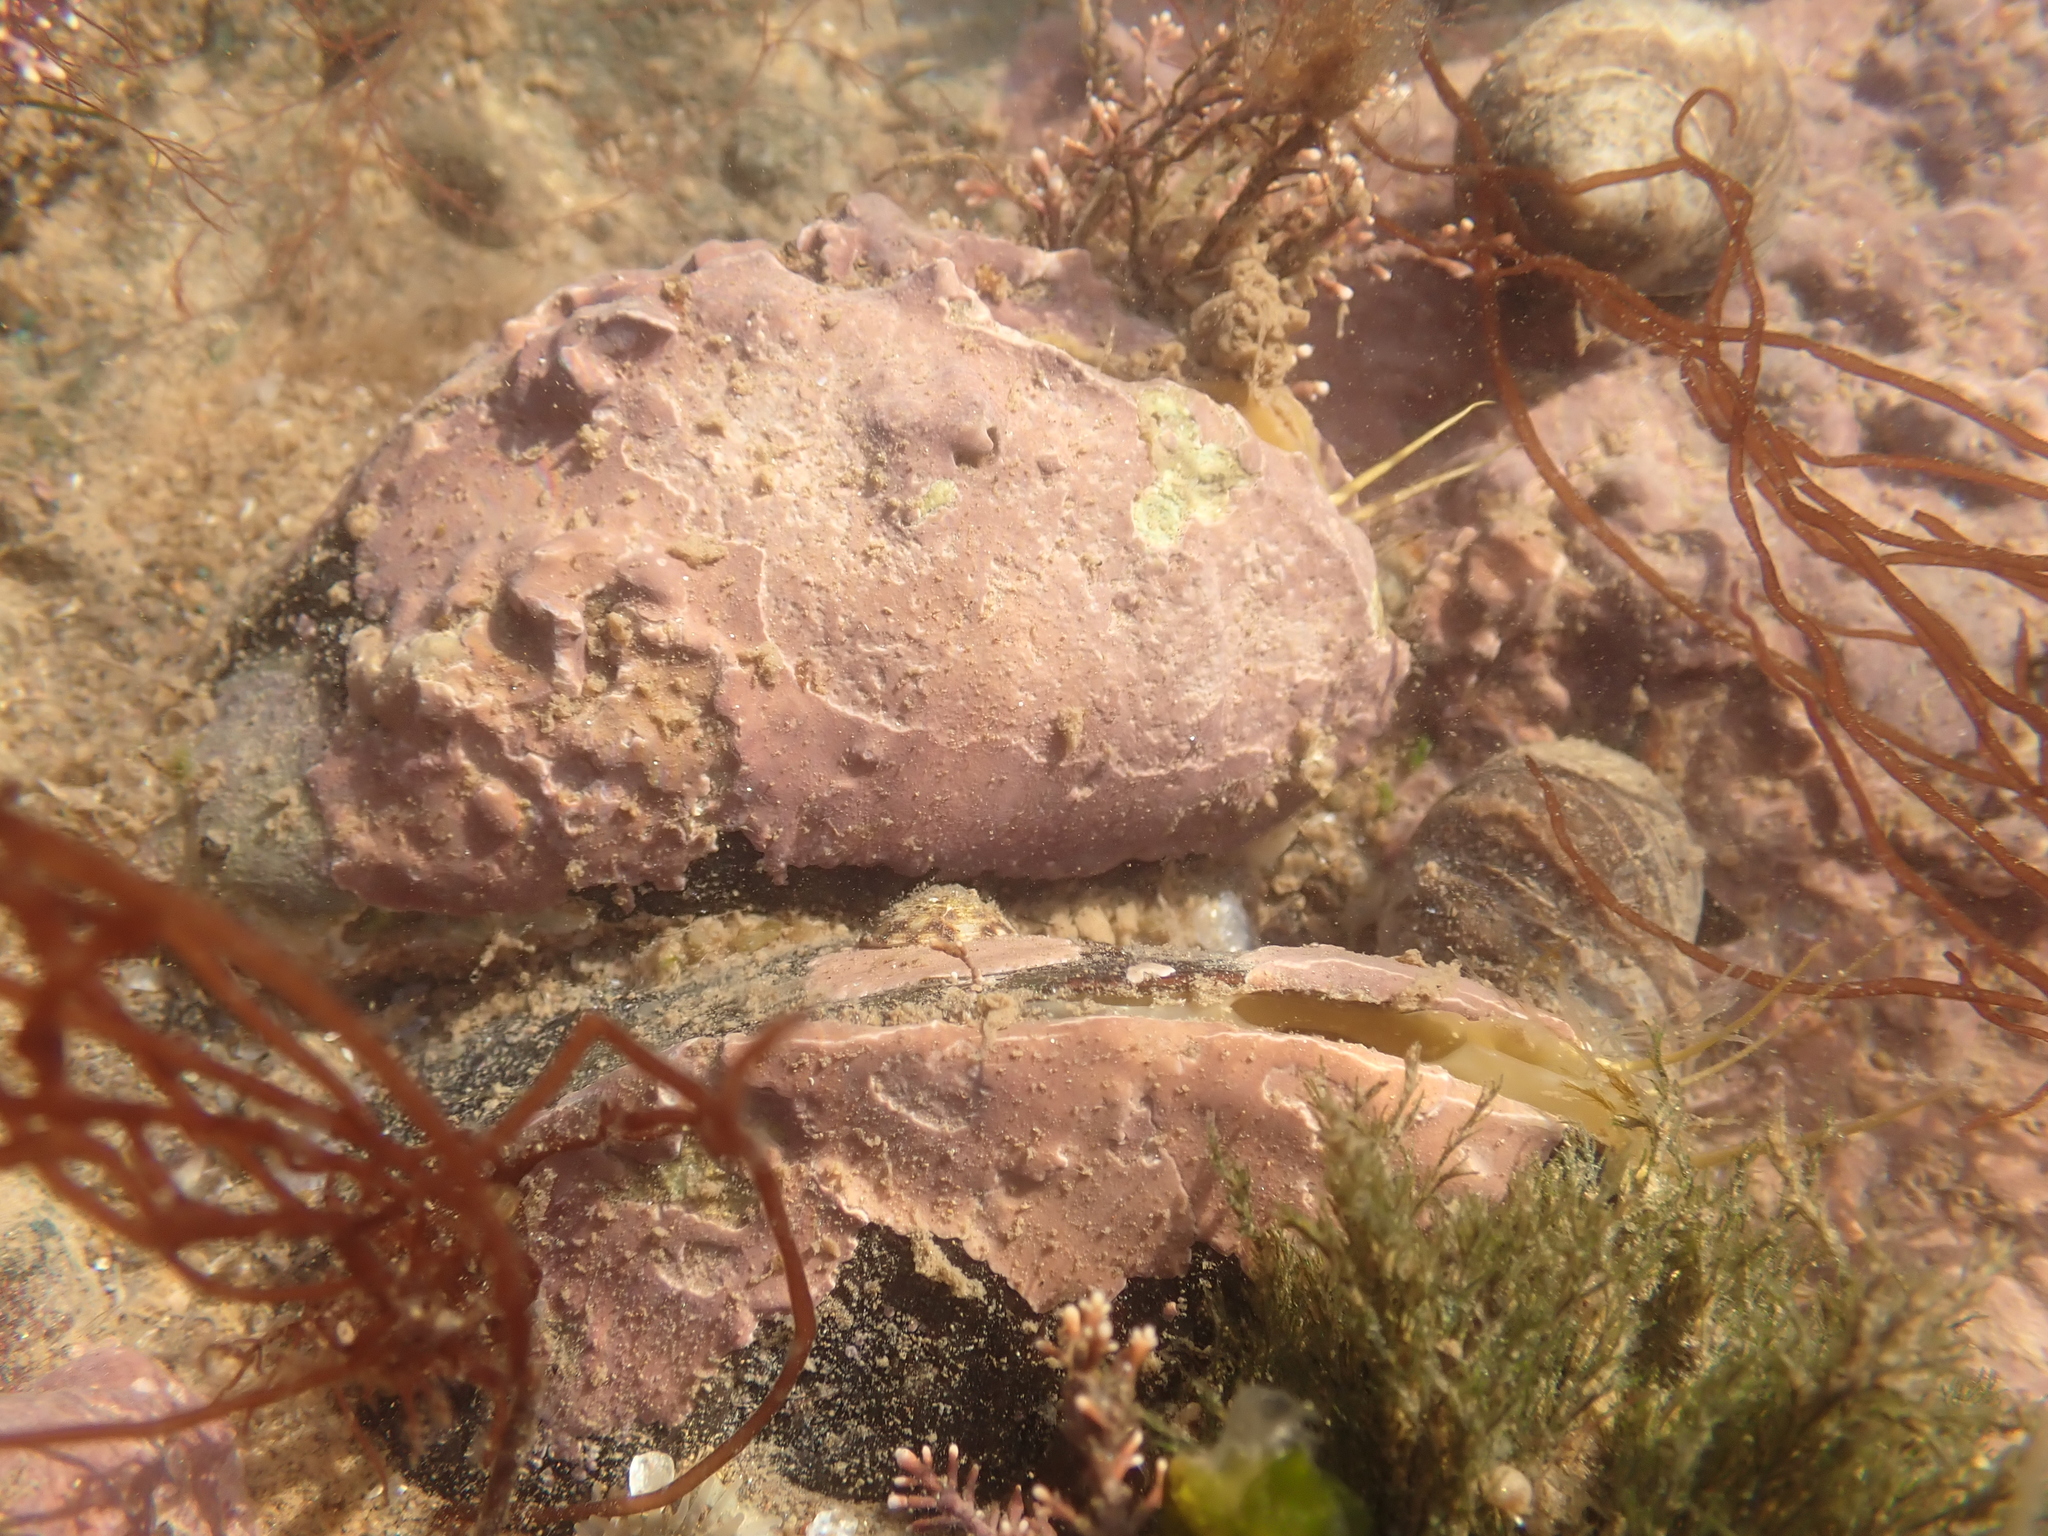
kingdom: Animalia
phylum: Mollusca
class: Bivalvia
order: Mytilida
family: Mytilidae
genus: Modiolus
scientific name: Modiolus modiolus
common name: Horse-mussel
